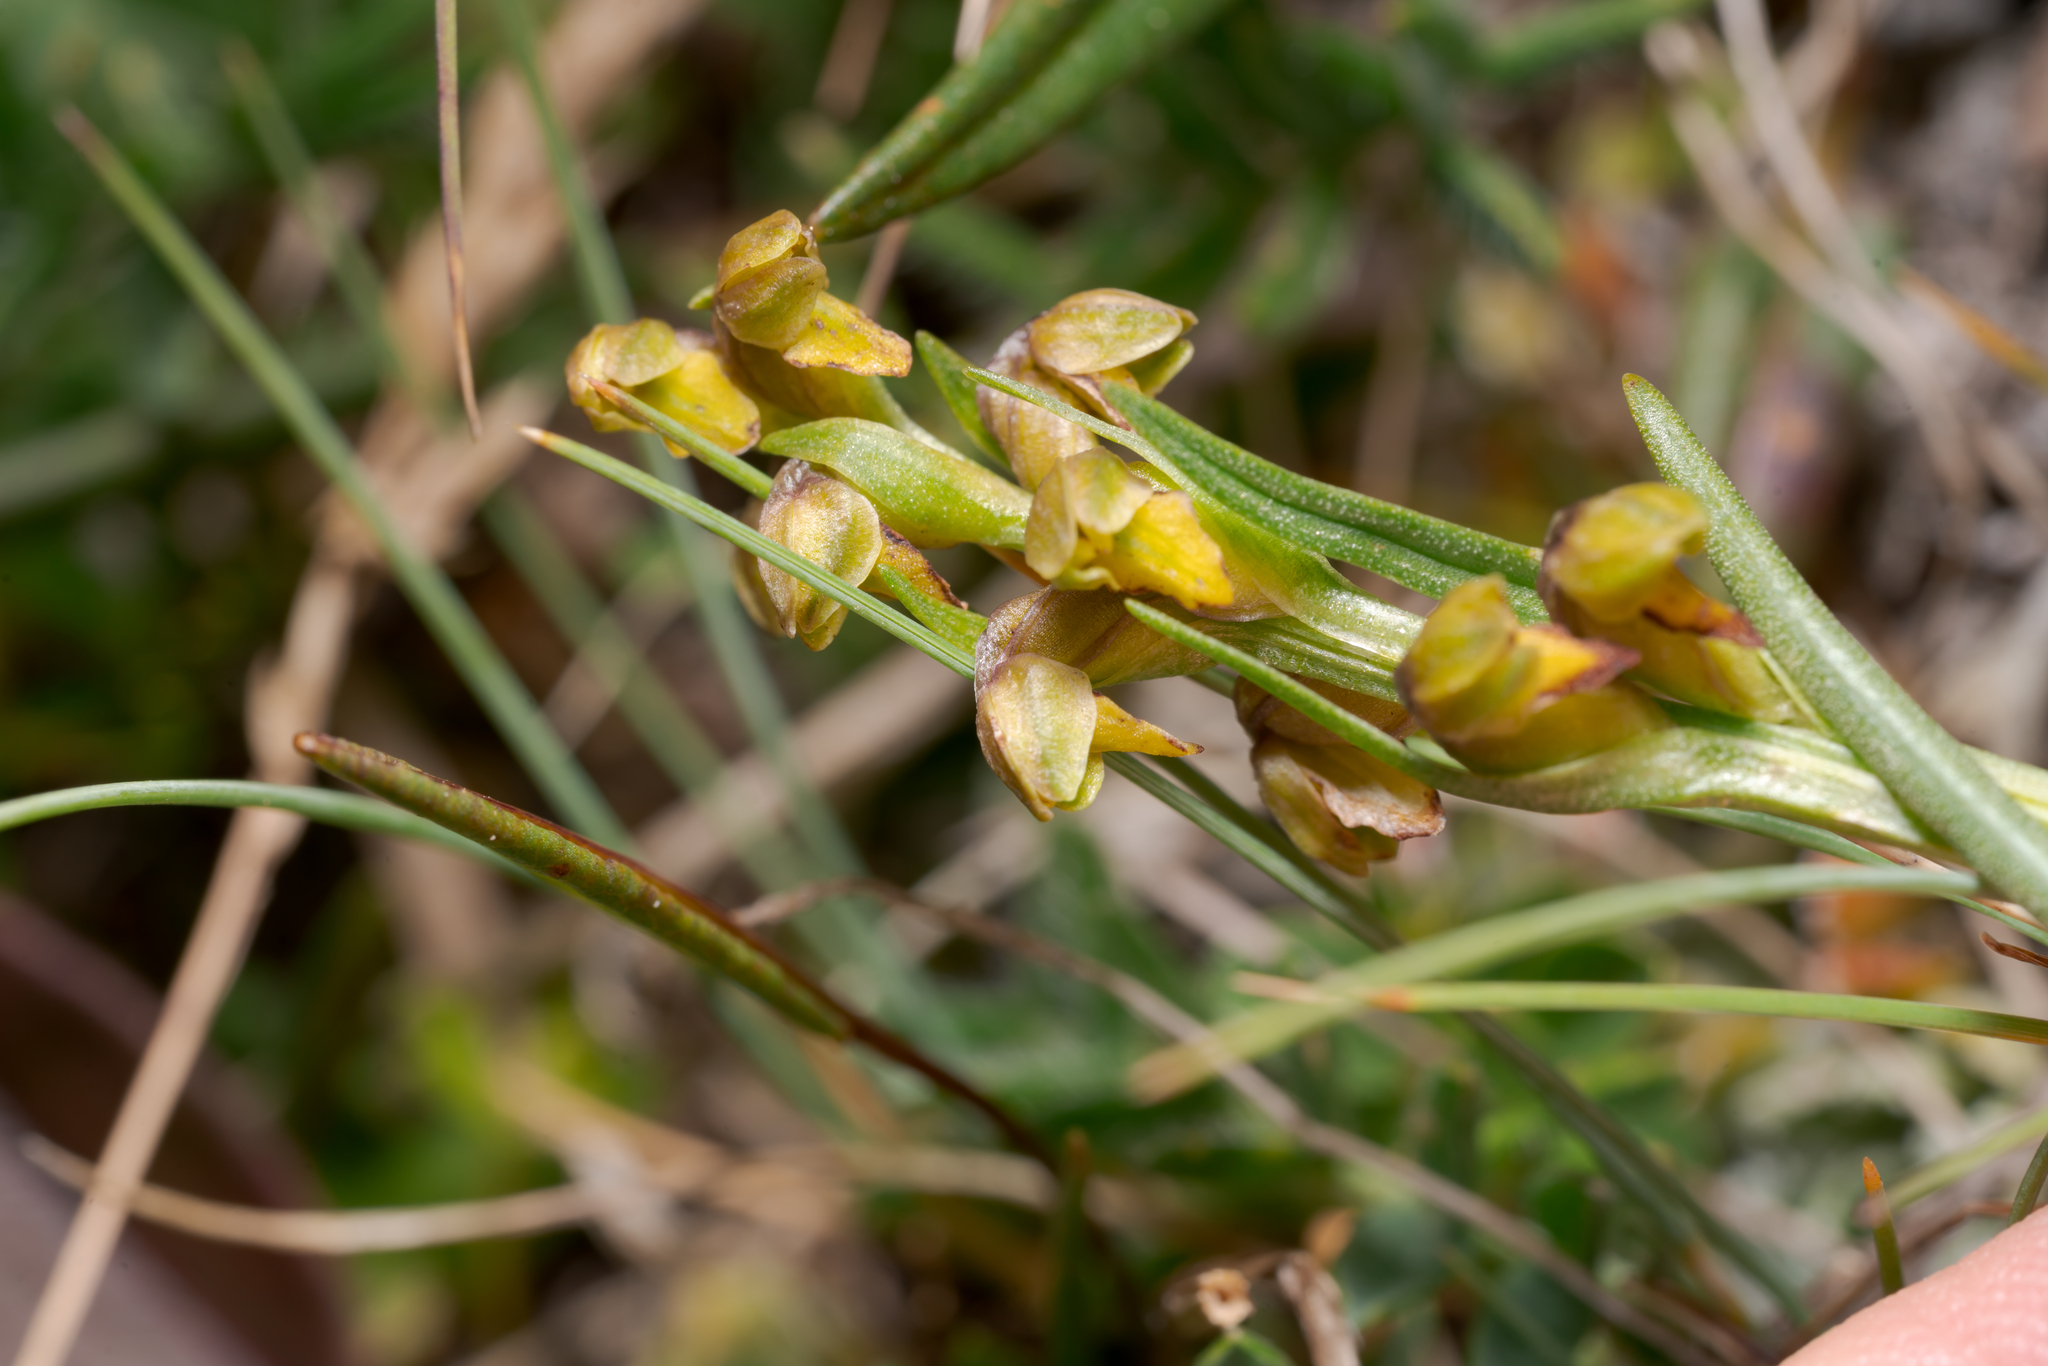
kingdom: Plantae
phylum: Tracheophyta
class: Liliopsida
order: Asparagales
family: Orchidaceae
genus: Chamorchis
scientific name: Chamorchis alpina
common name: Alpine chamorchis
